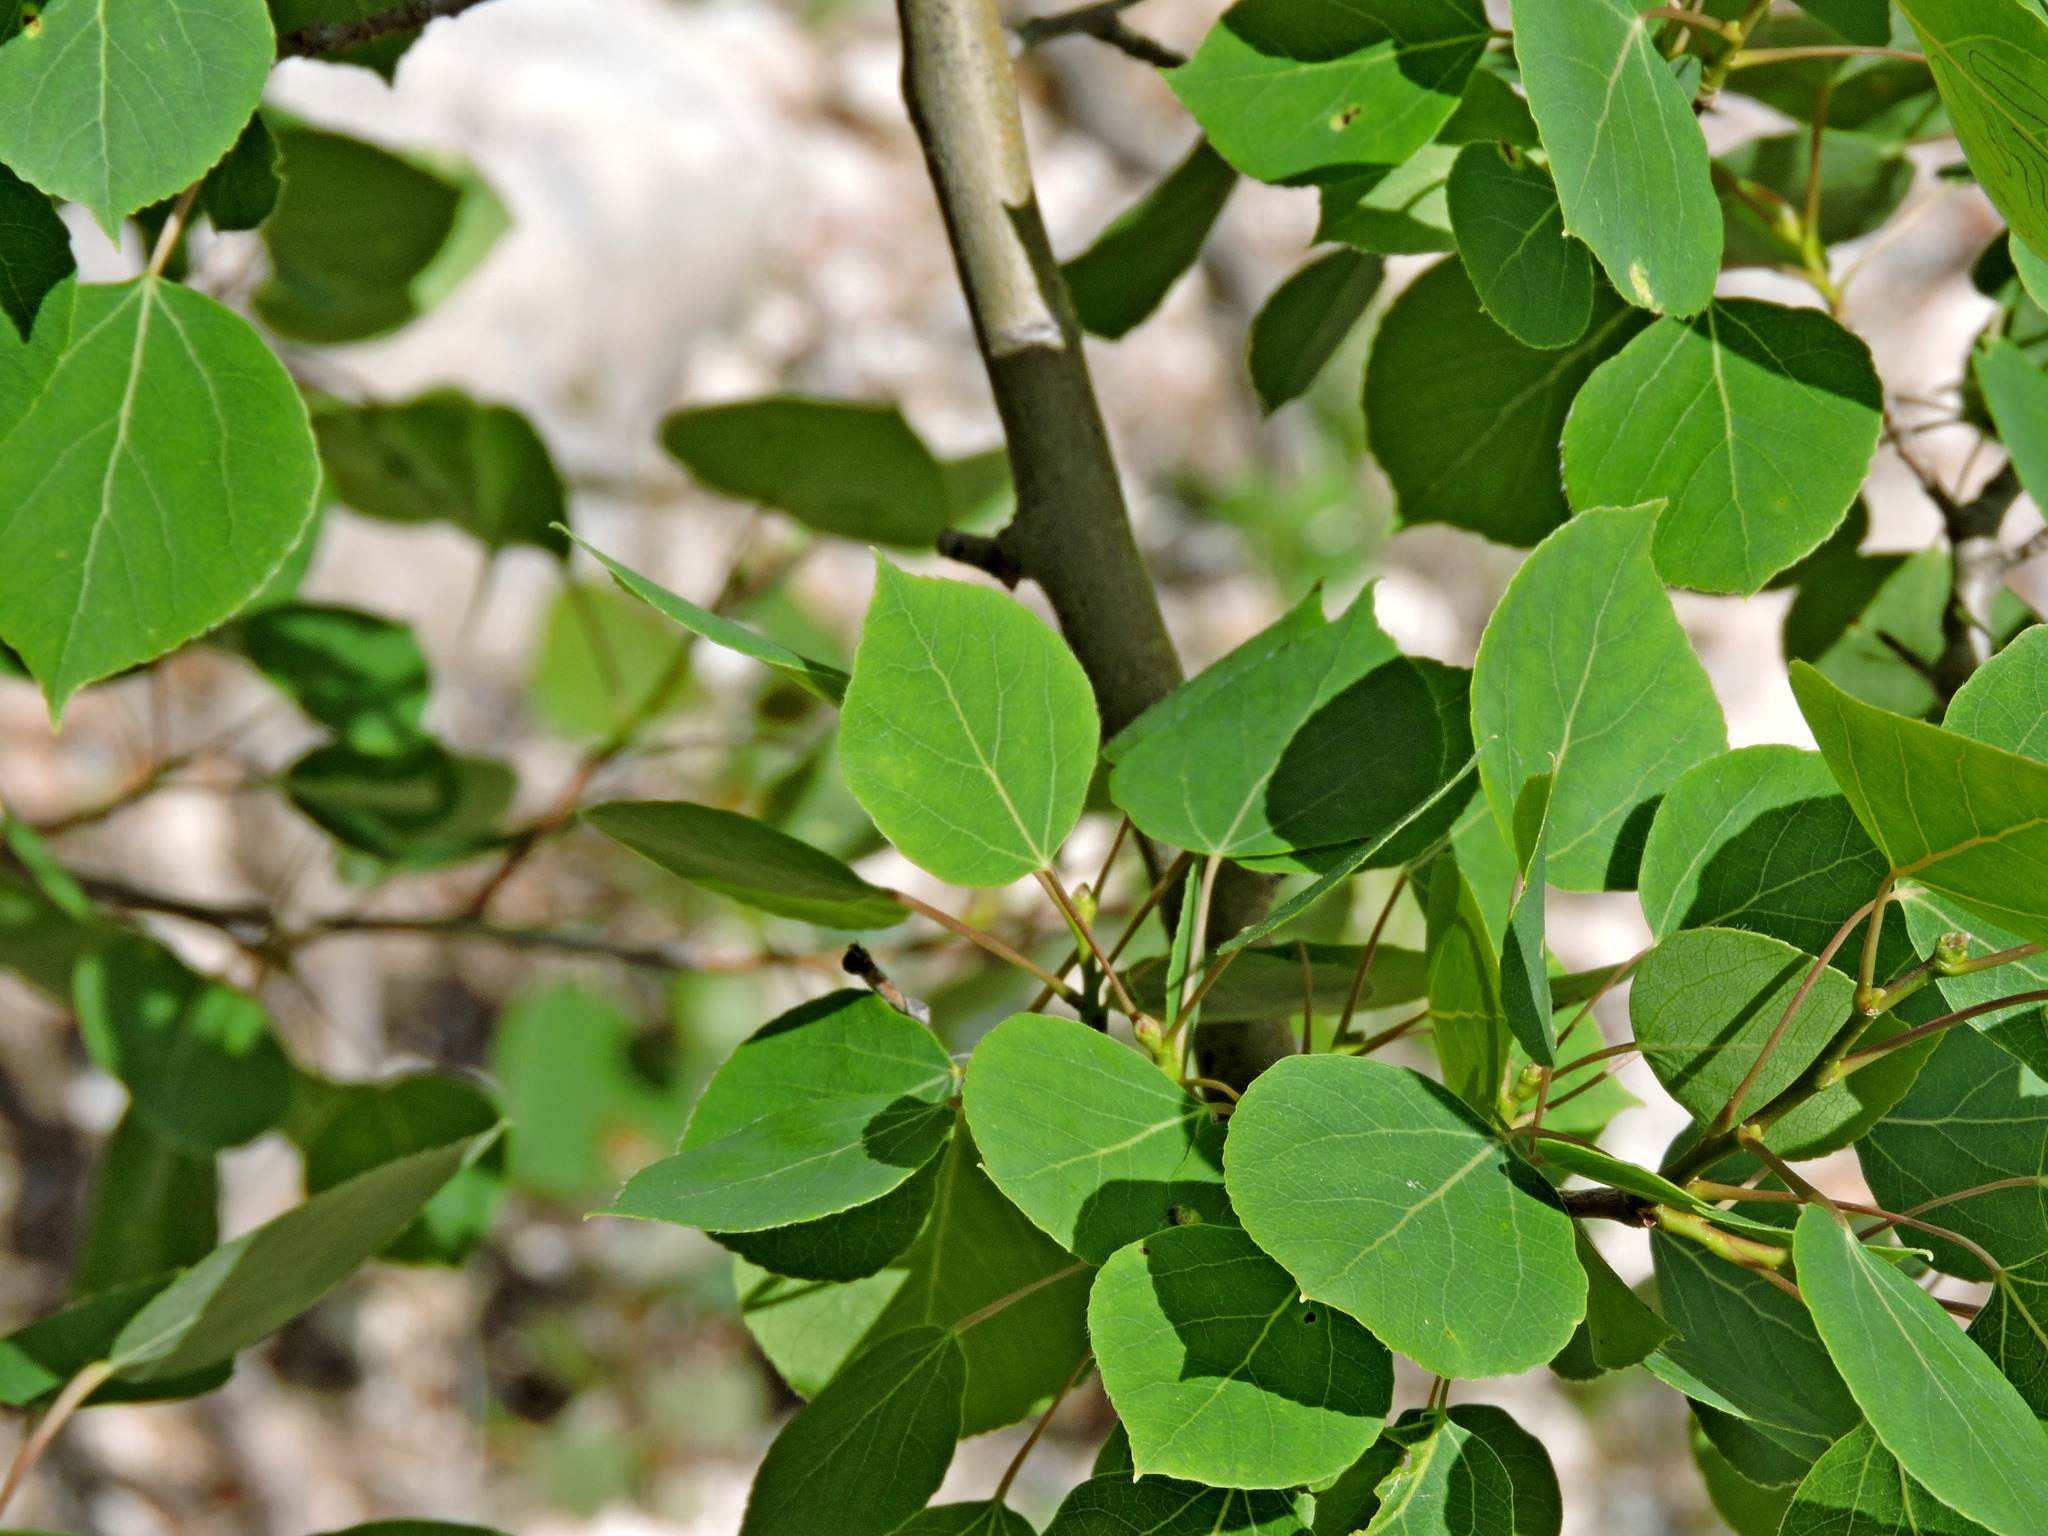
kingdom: Plantae
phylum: Tracheophyta
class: Magnoliopsida
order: Malpighiales
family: Salicaceae
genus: Populus
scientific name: Populus tremuloides
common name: Quaking aspen
